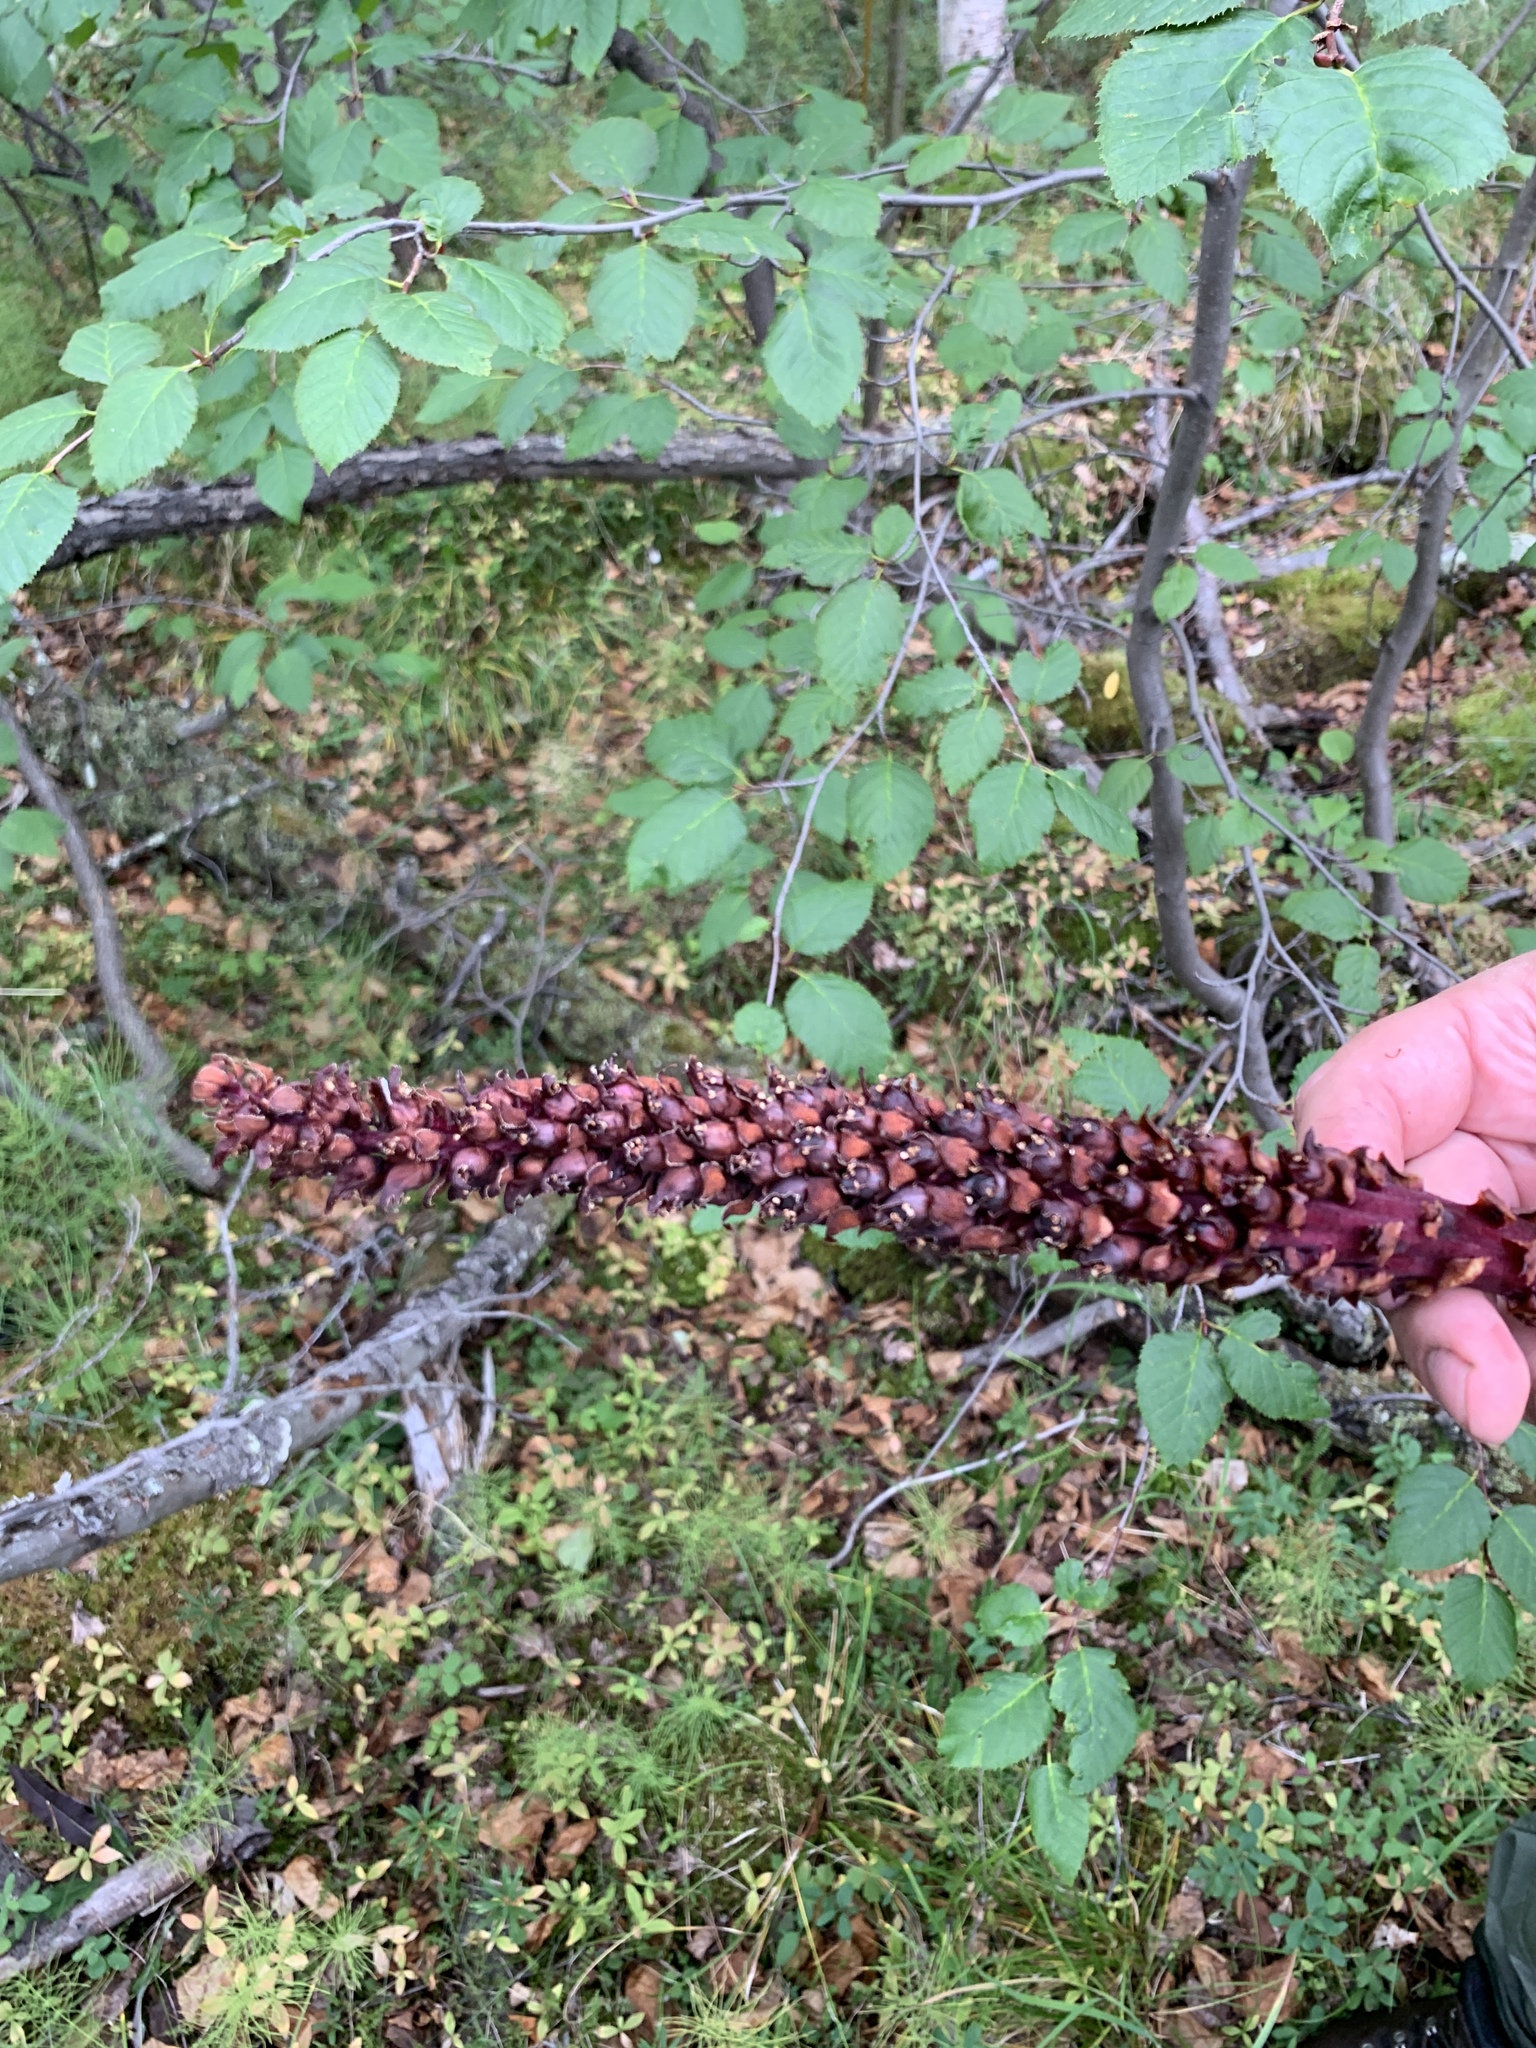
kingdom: Plantae
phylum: Tracheophyta
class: Magnoliopsida
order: Lamiales
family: Orobanchaceae
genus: Boschniakia
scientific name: Boschniakia rossica
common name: Poque
